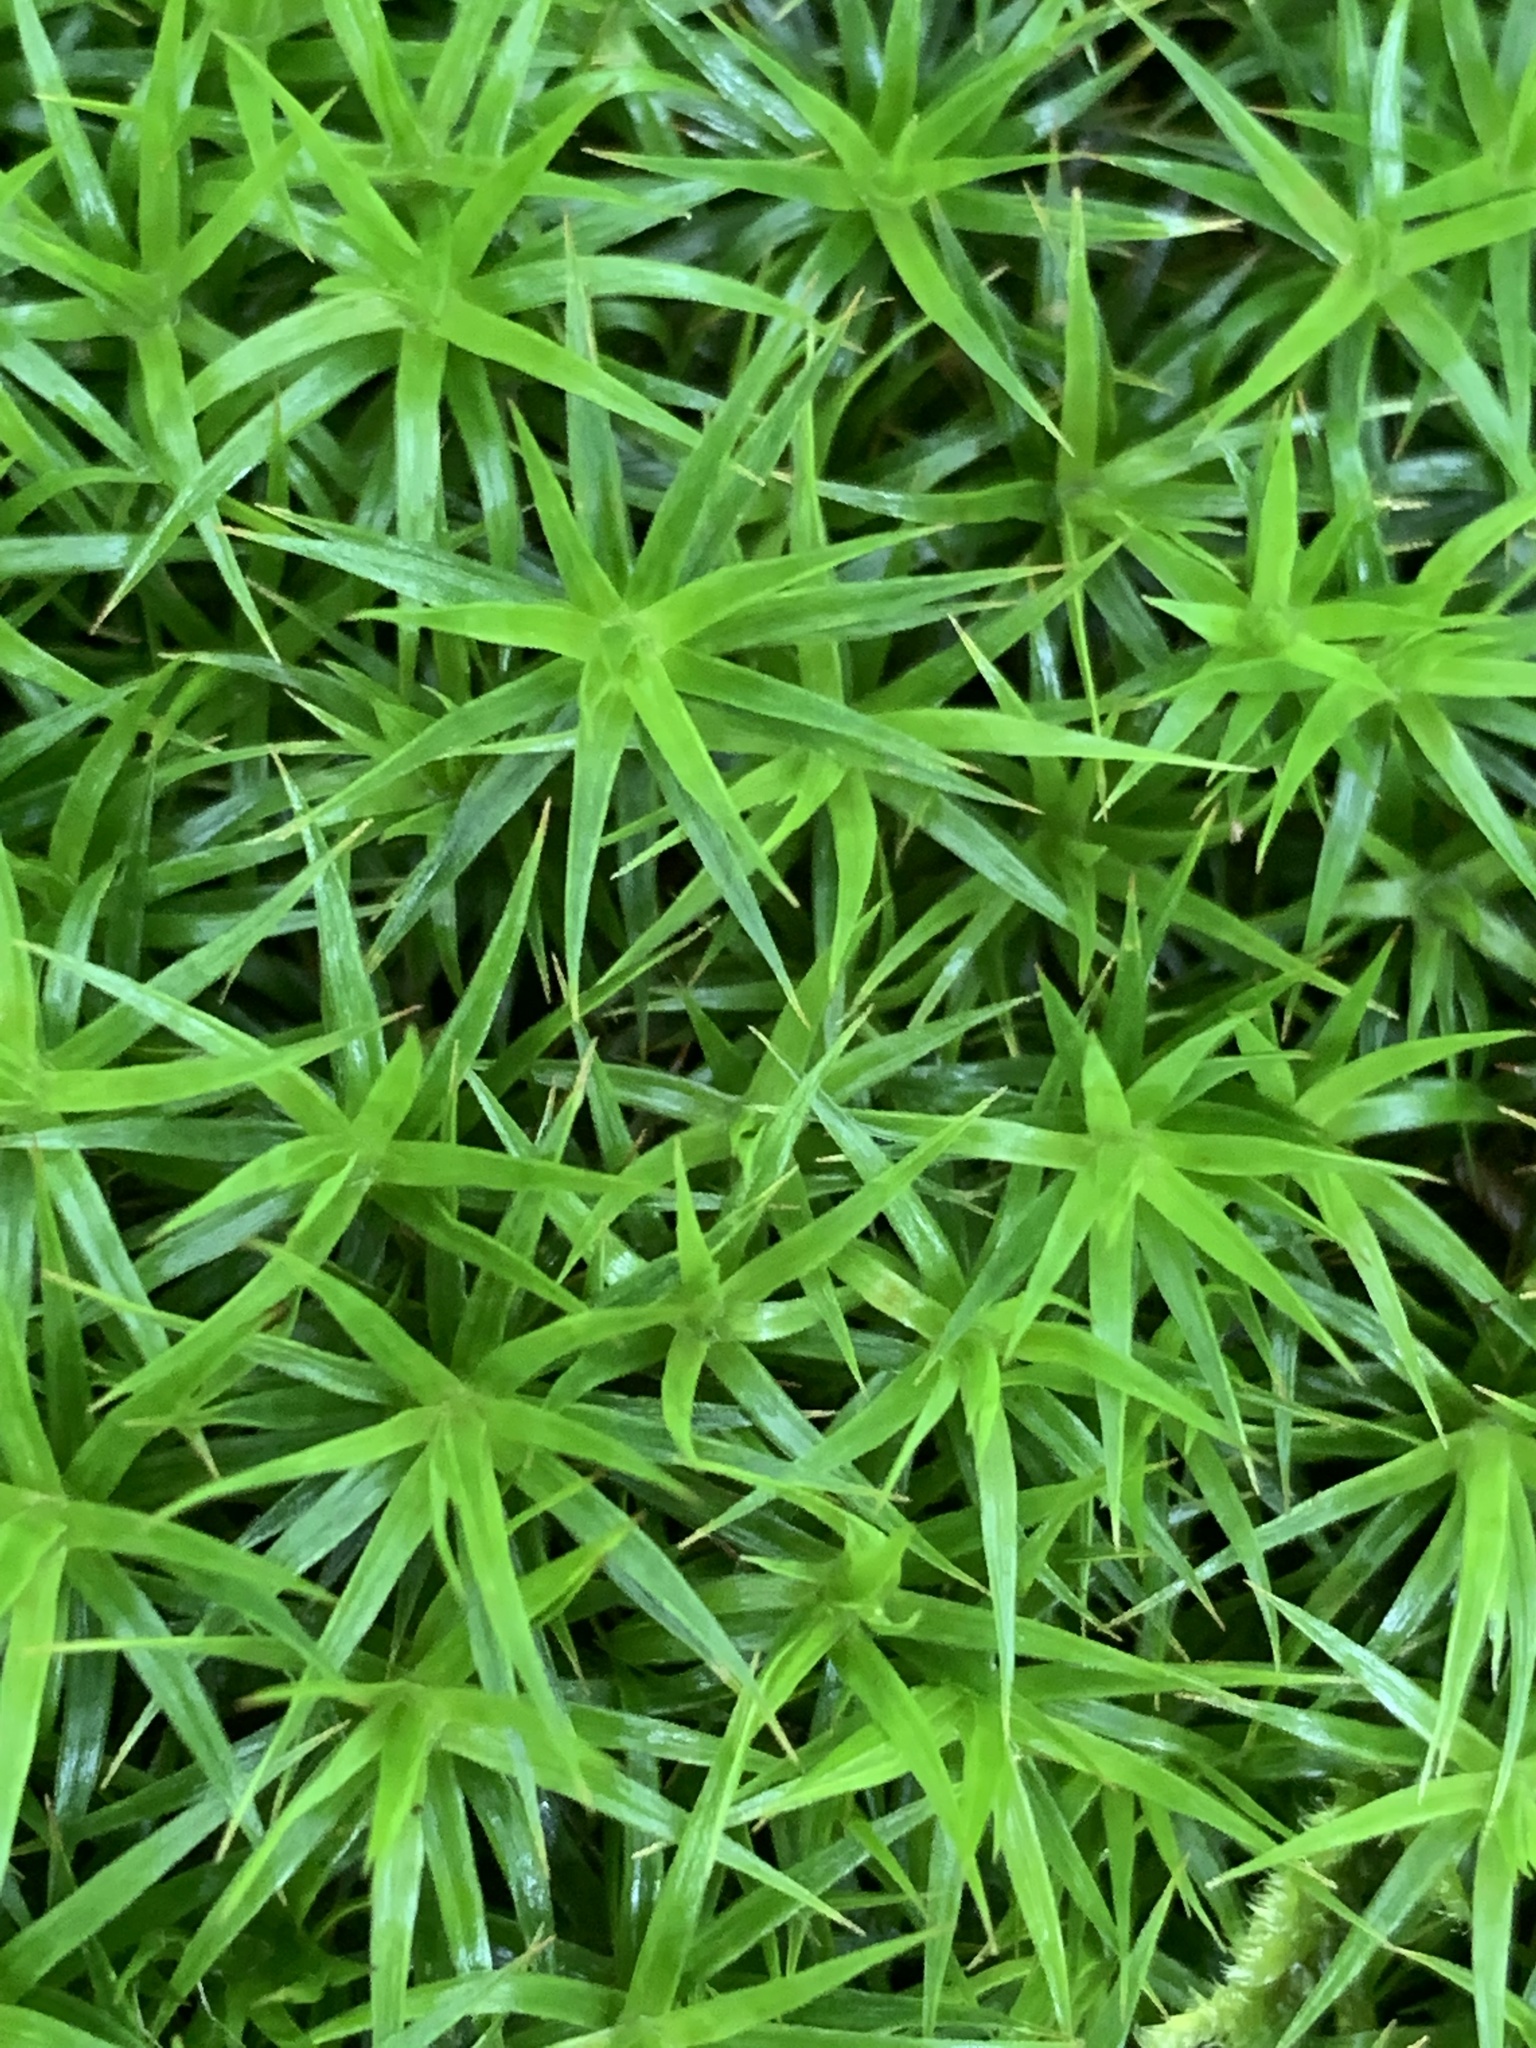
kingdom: Plantae
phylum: Bryophyta
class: Polytrichopsida
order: Polytrichales
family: Polytrichaceae
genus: Polytrichum
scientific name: Polytrichum formosum
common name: Bank haircap moss
